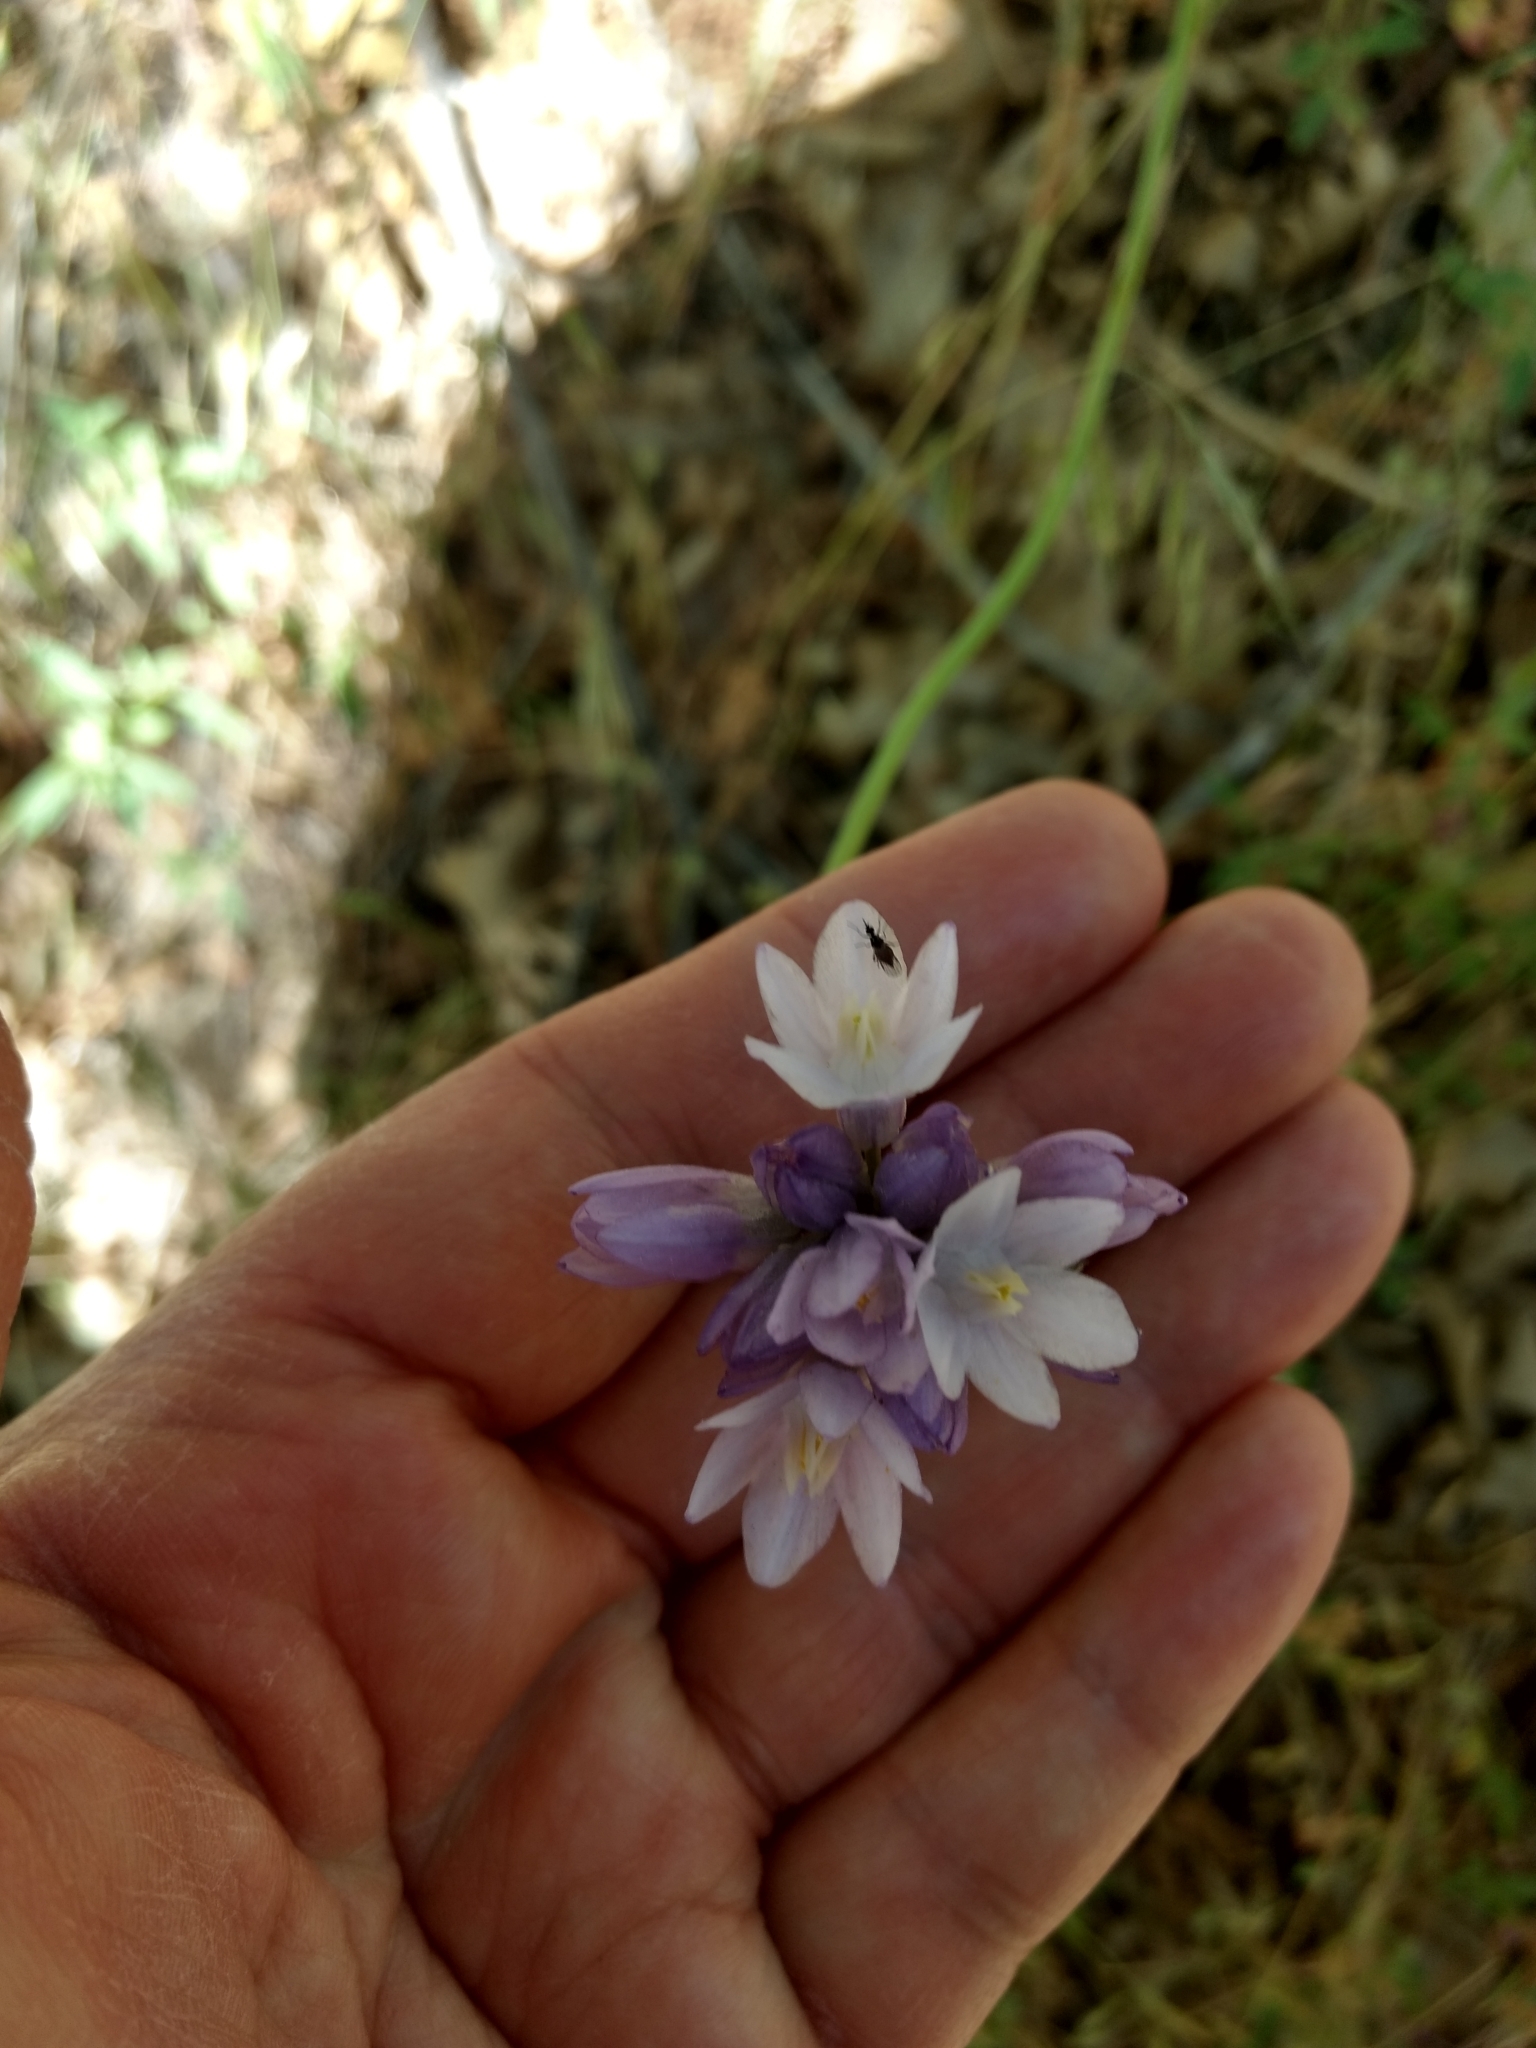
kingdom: Plantae
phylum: Tracheophyta
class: Liliopsida
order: Asparagales
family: Asparagaceae
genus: Dipterostemon
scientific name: Dipterostemon capitatus
